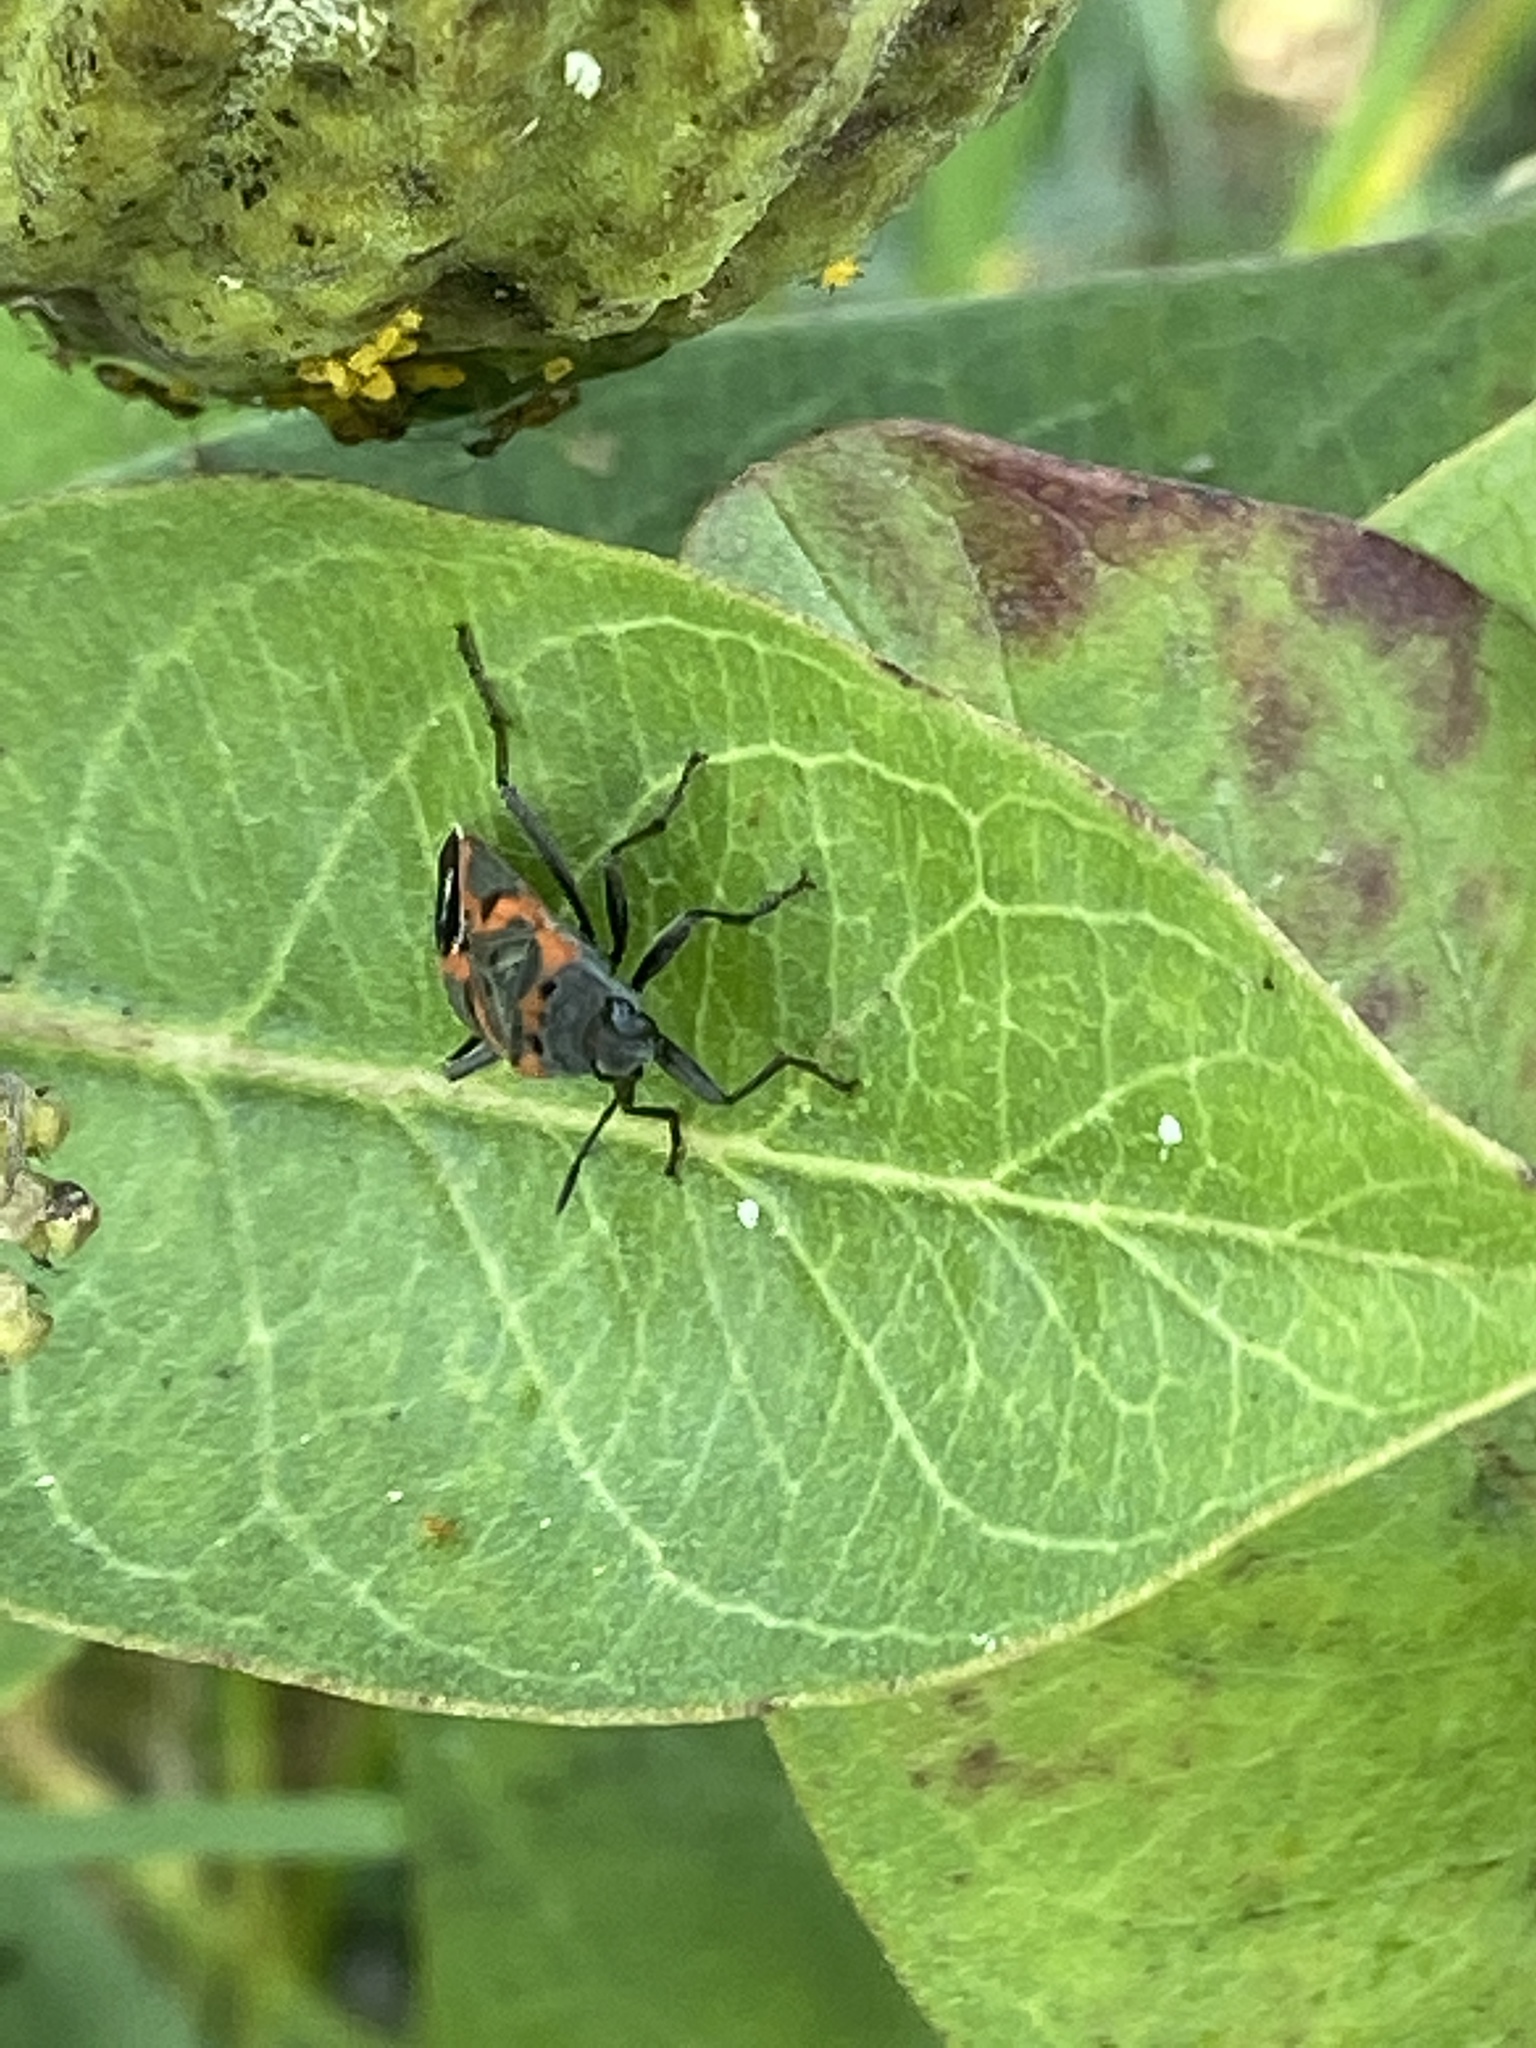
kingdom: Animalia
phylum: Arthropoda
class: Insecta
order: Hemiptera
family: Lygaeidae
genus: Lygaeus
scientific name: Lygaeus kalmii
